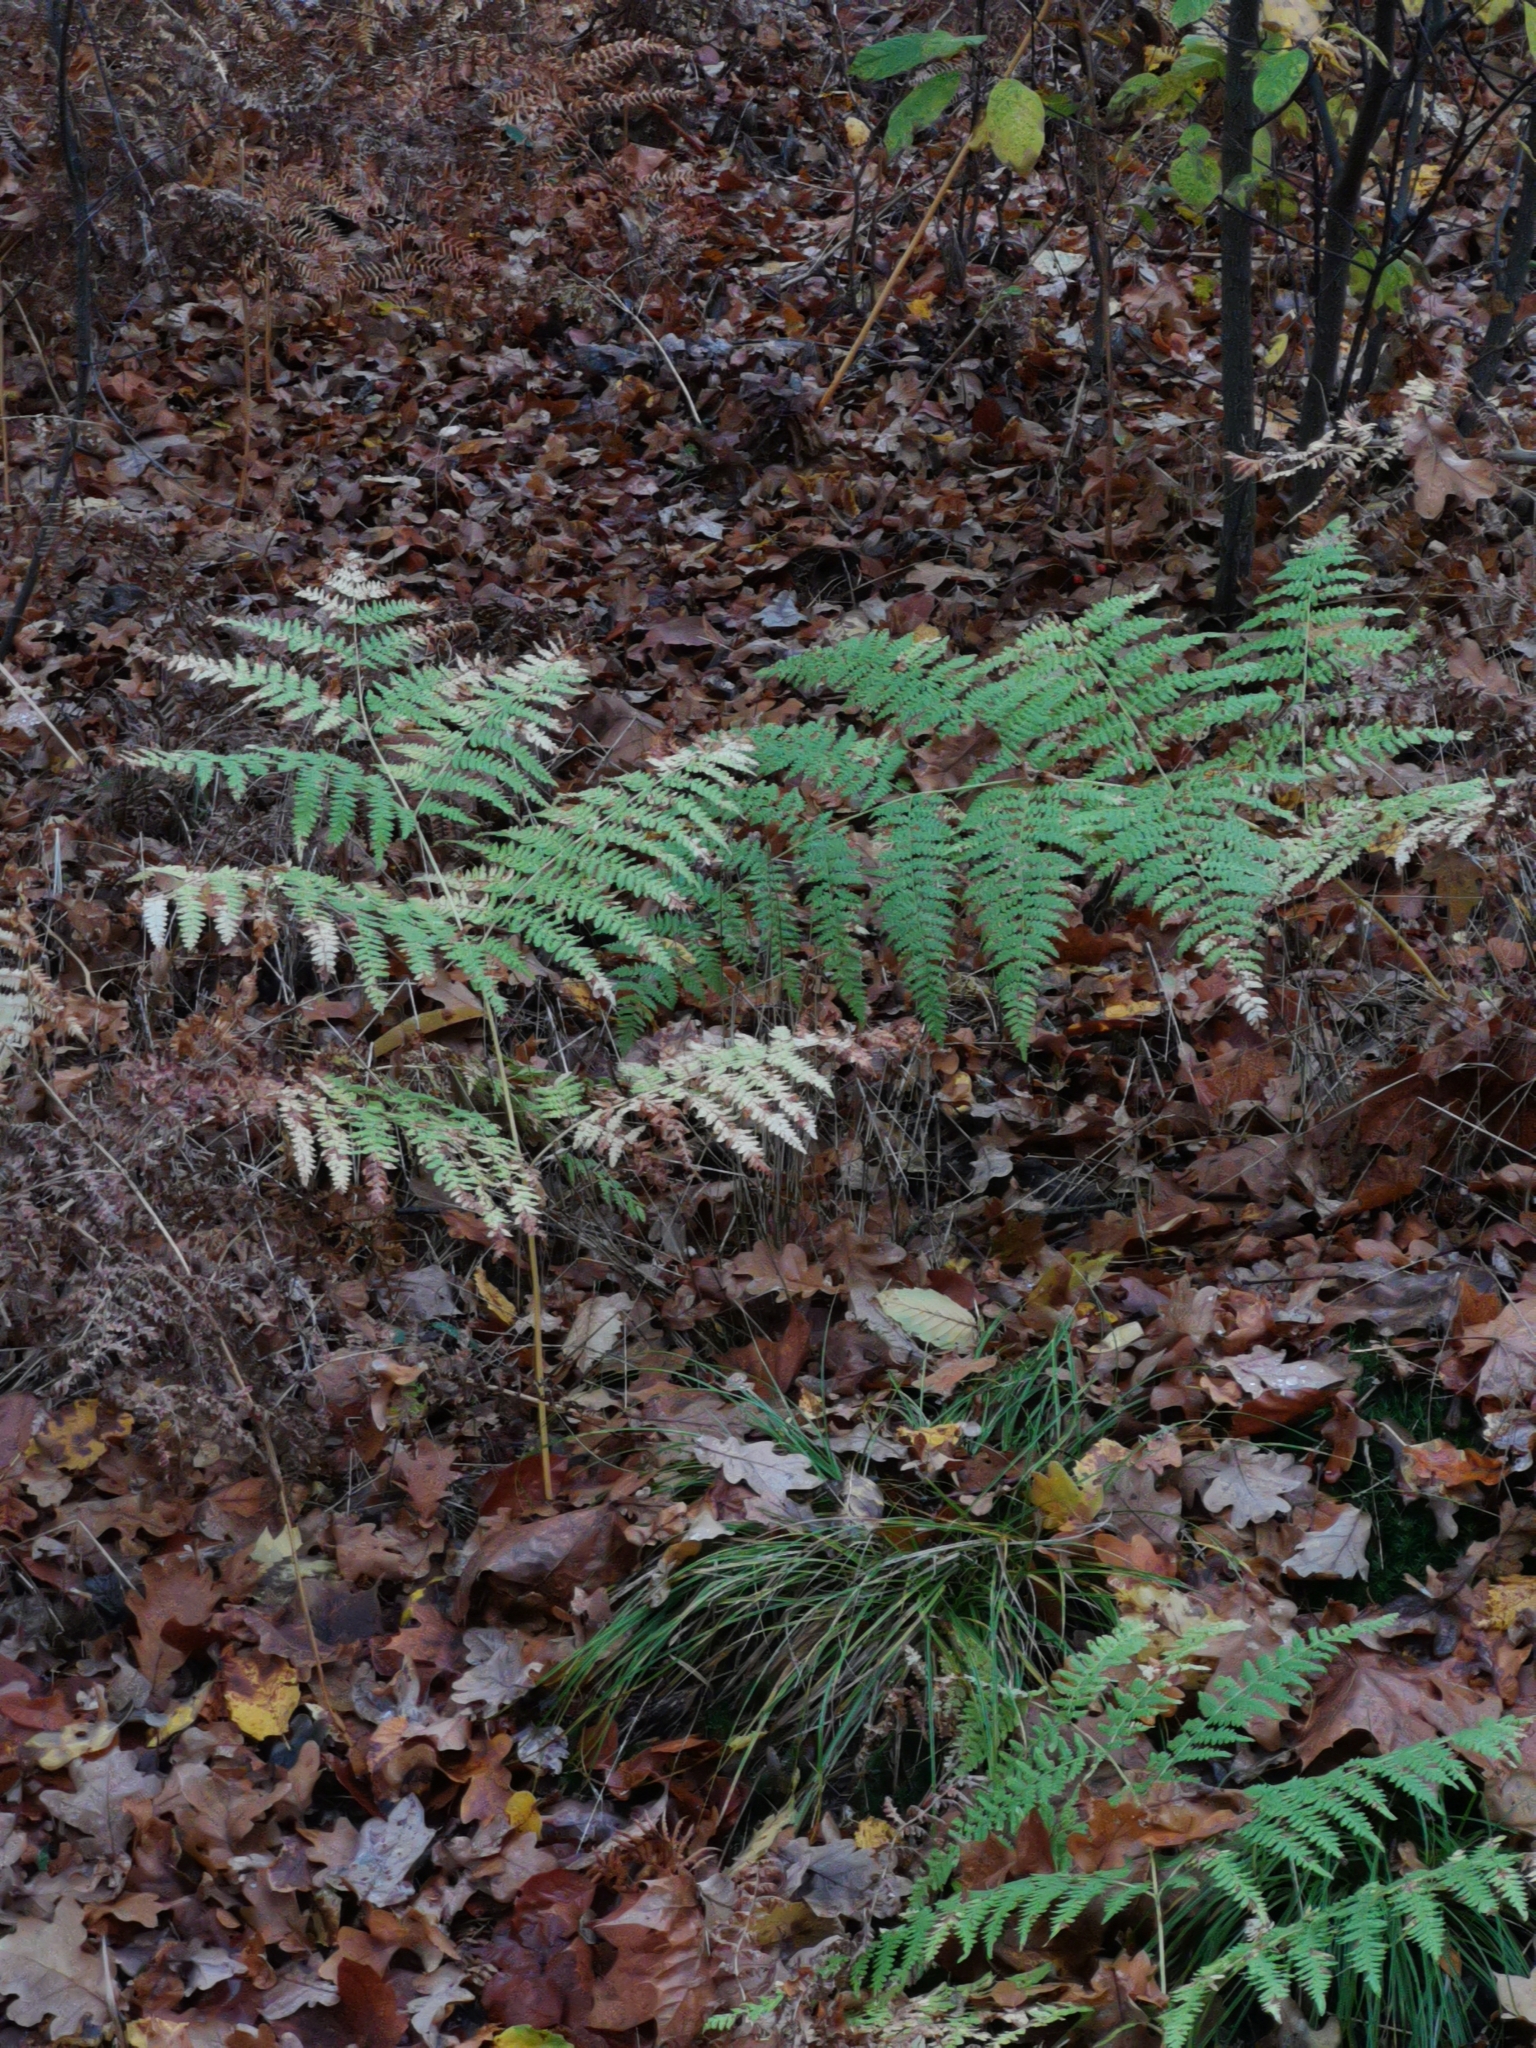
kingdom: Plantae
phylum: Tracheophyta
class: Polypodiopsida
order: Polypodiales
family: Dennstaedtiaceae
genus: Pteridium
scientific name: Pteridium aquilinum
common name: Bracken
